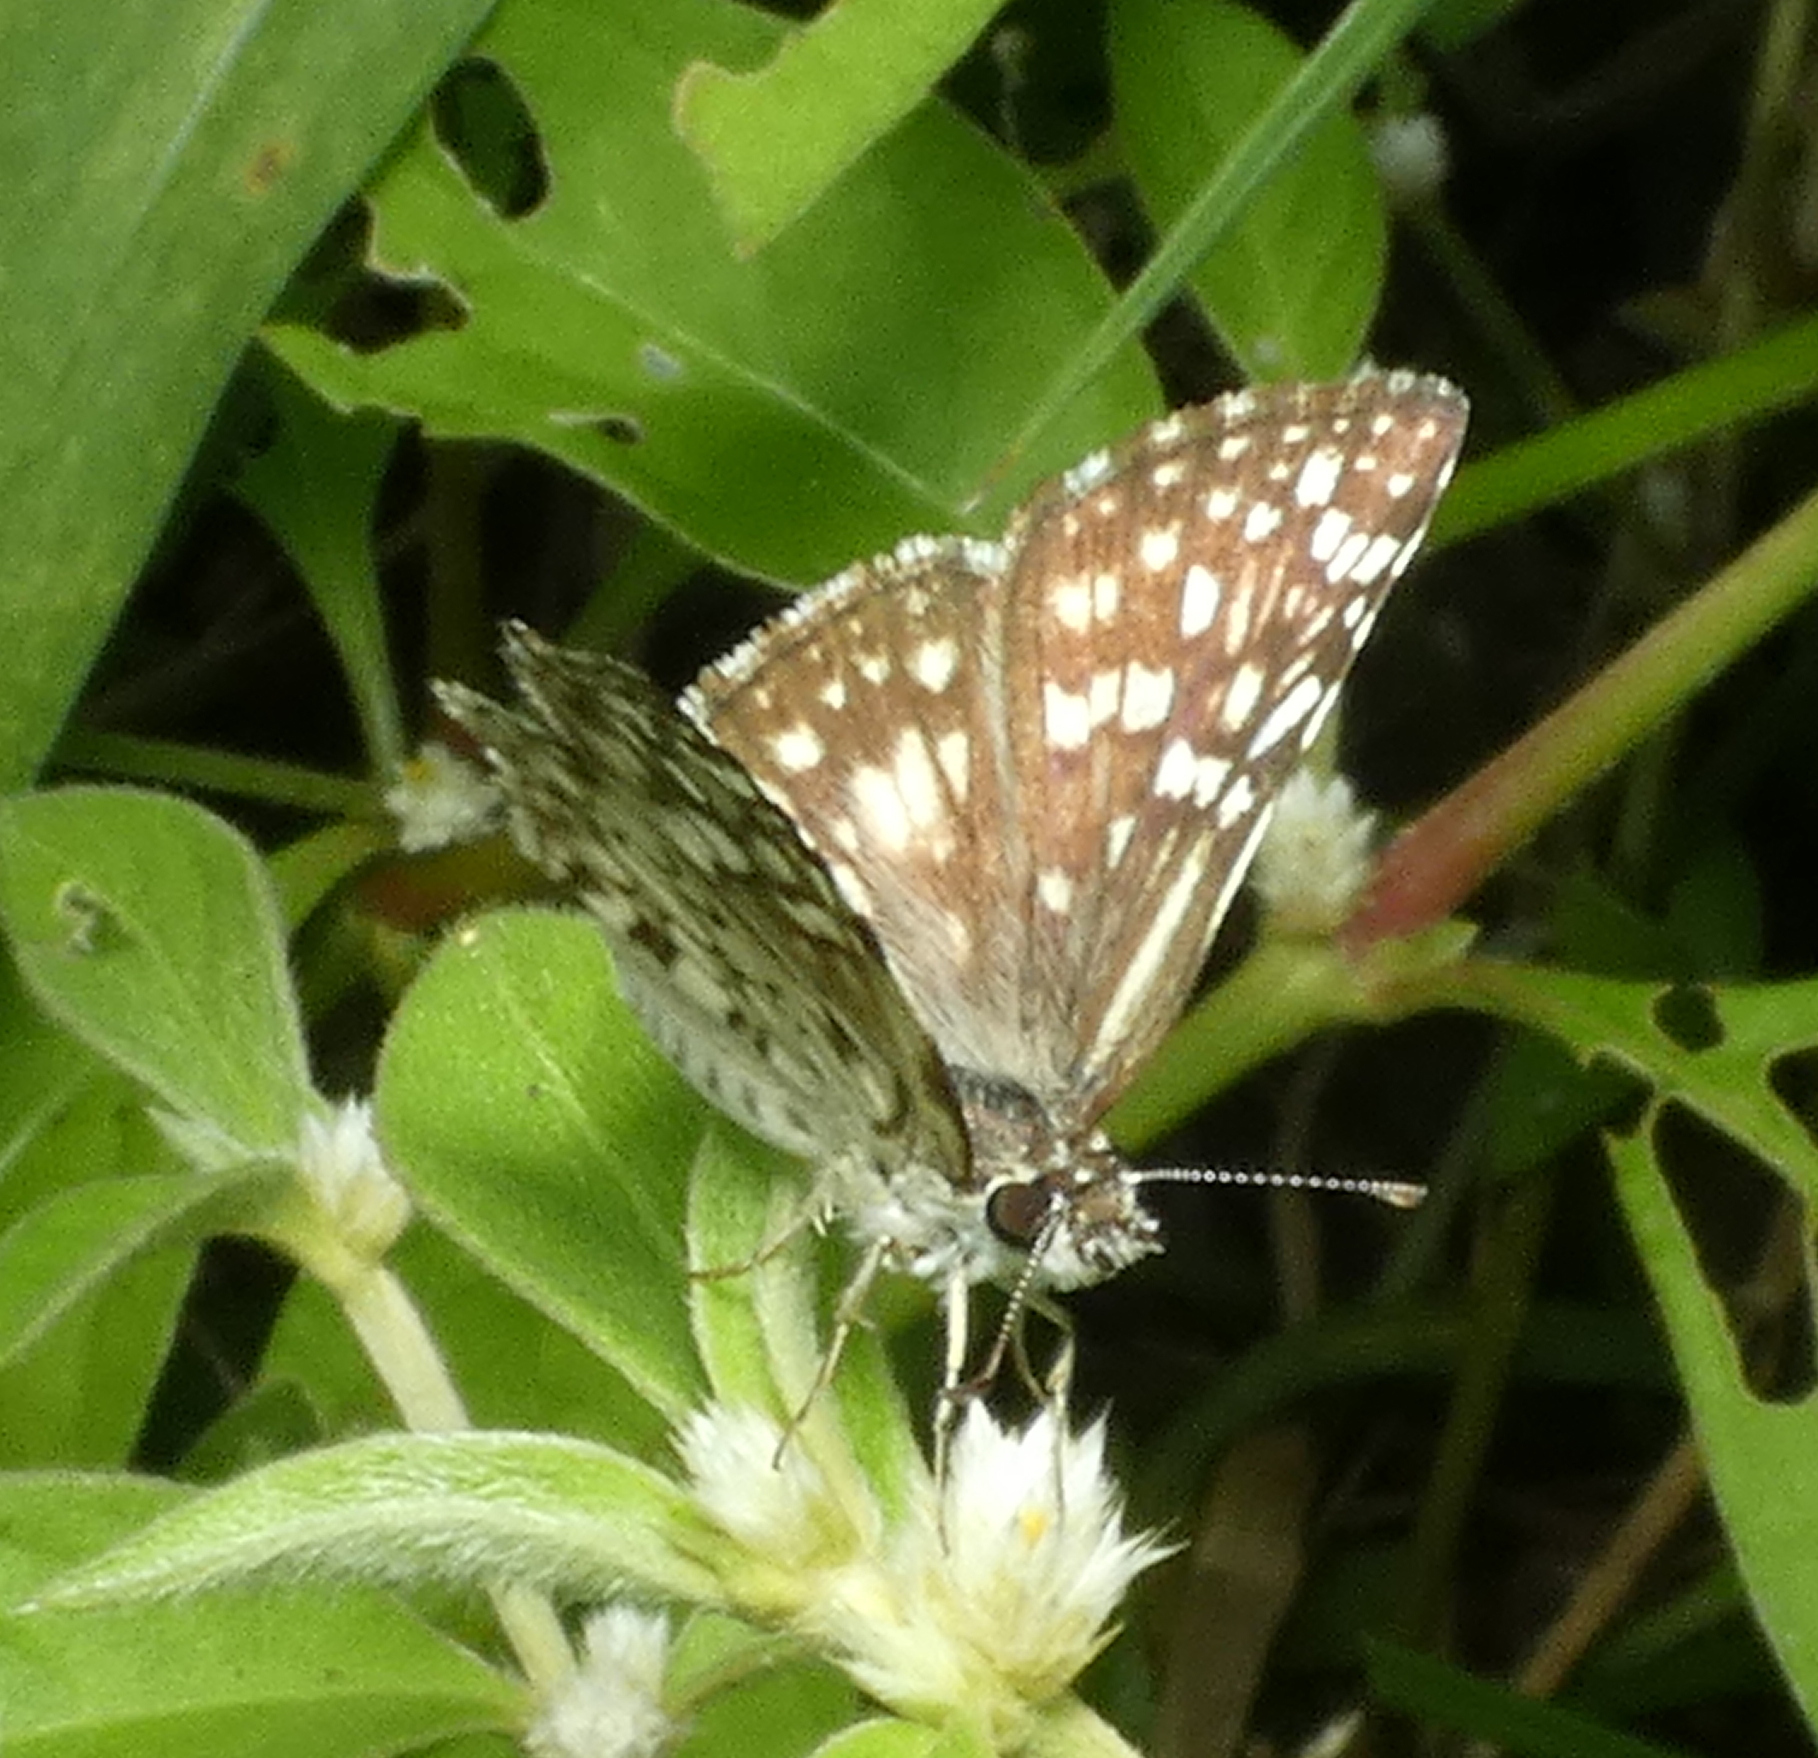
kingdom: Animalia
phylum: Arthropoda
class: Insecta
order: Lepidoptera
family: Hesperiidae
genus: Pyrgus
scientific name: Pyrgus oileus
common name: Tropical checkered-skipper
